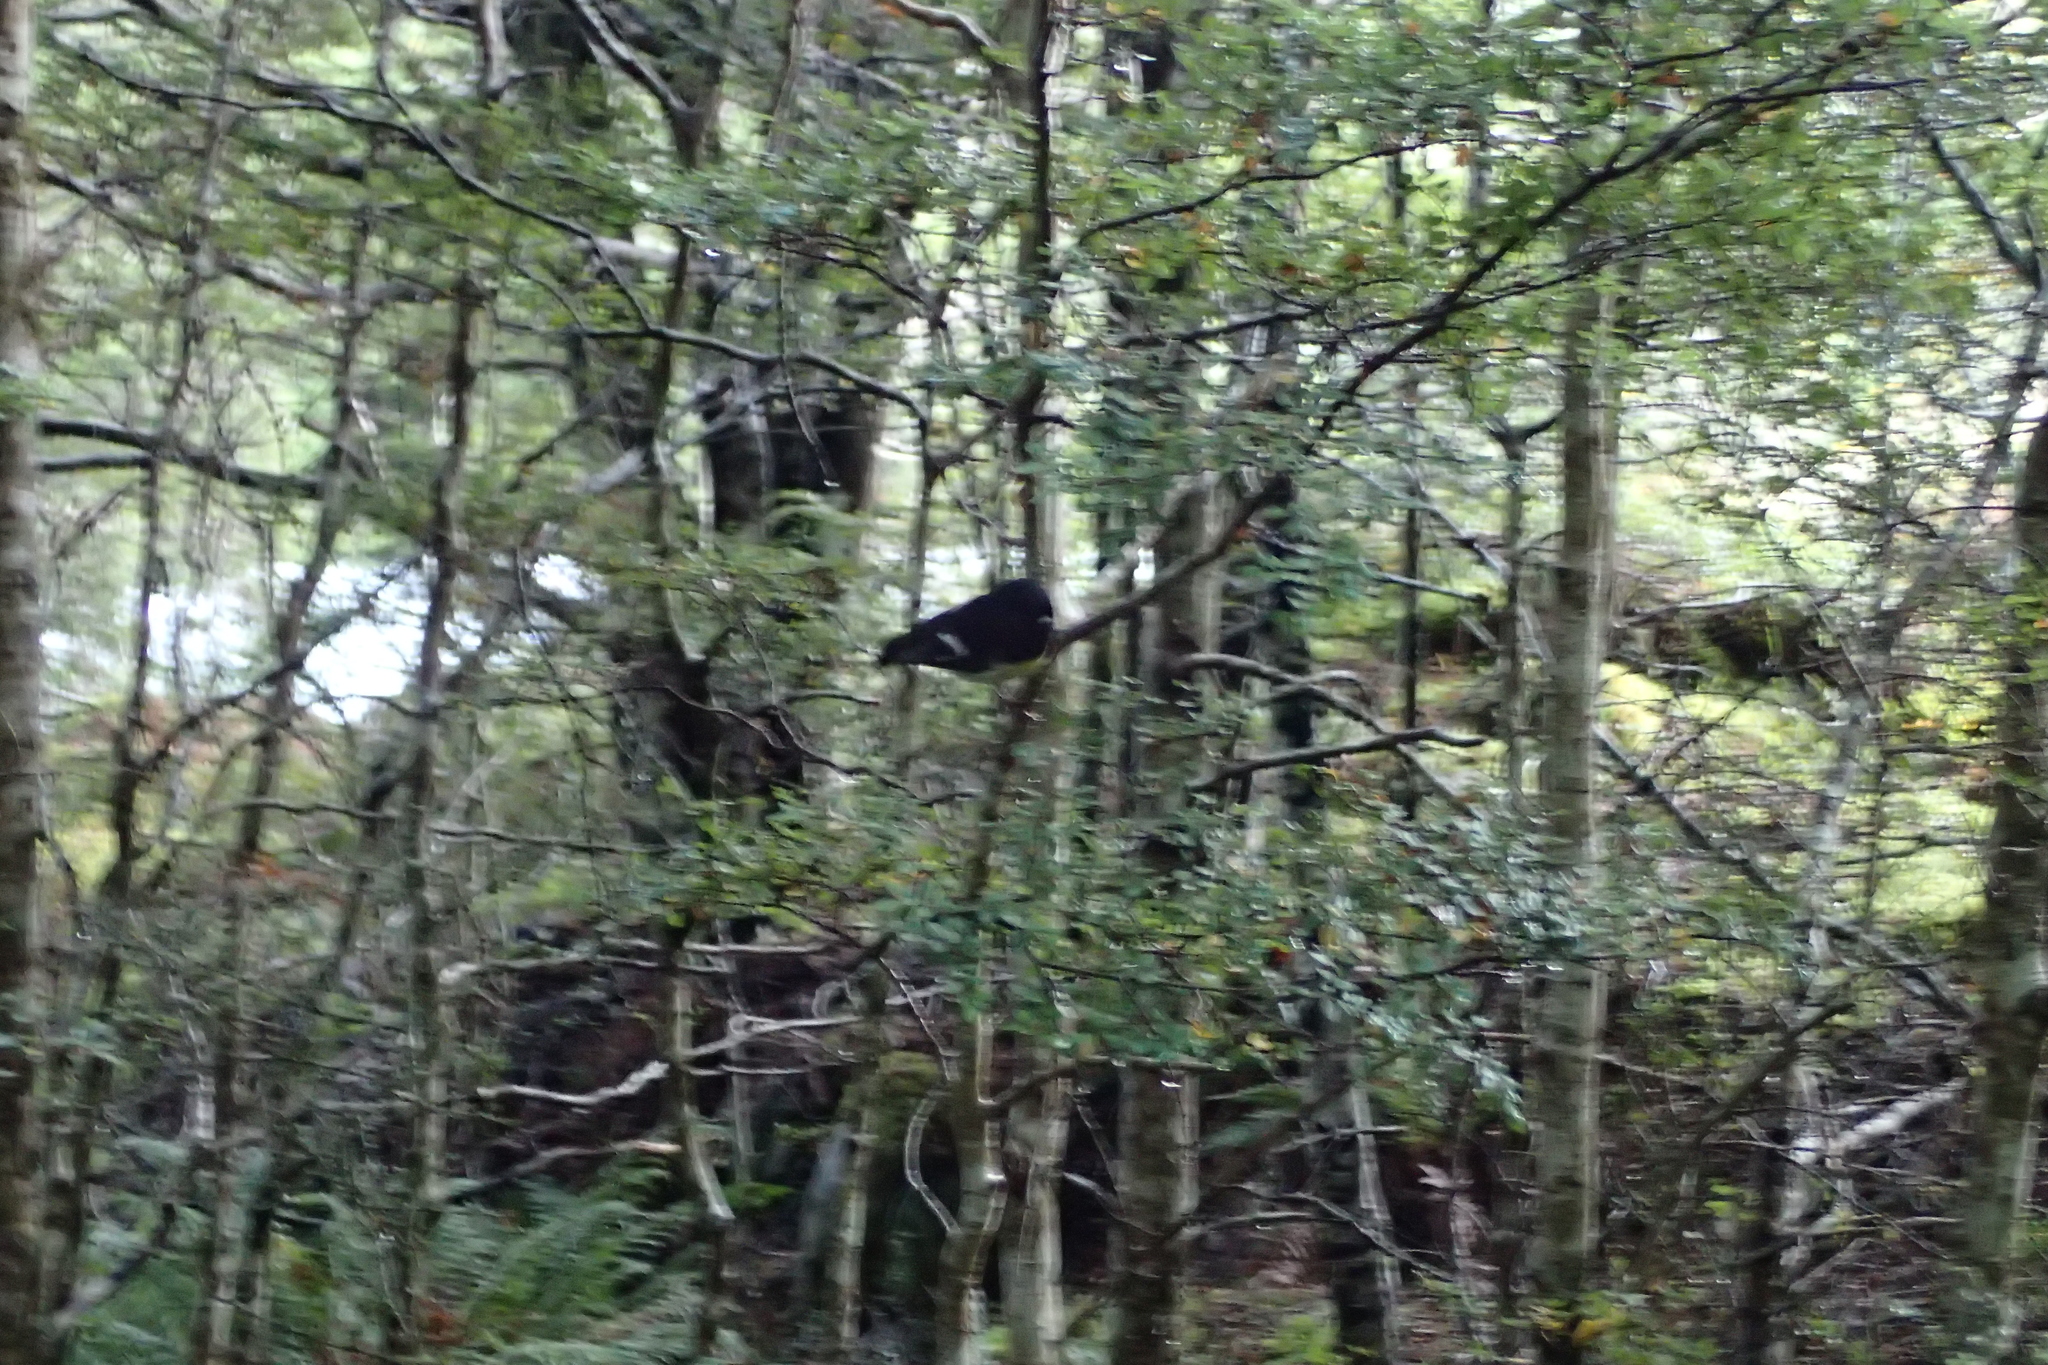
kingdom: Animalia
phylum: Chordata
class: Aves
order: Passeriformes
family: Petroicidae
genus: Petroica
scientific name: Petroica macrocephala
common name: Tomtit
